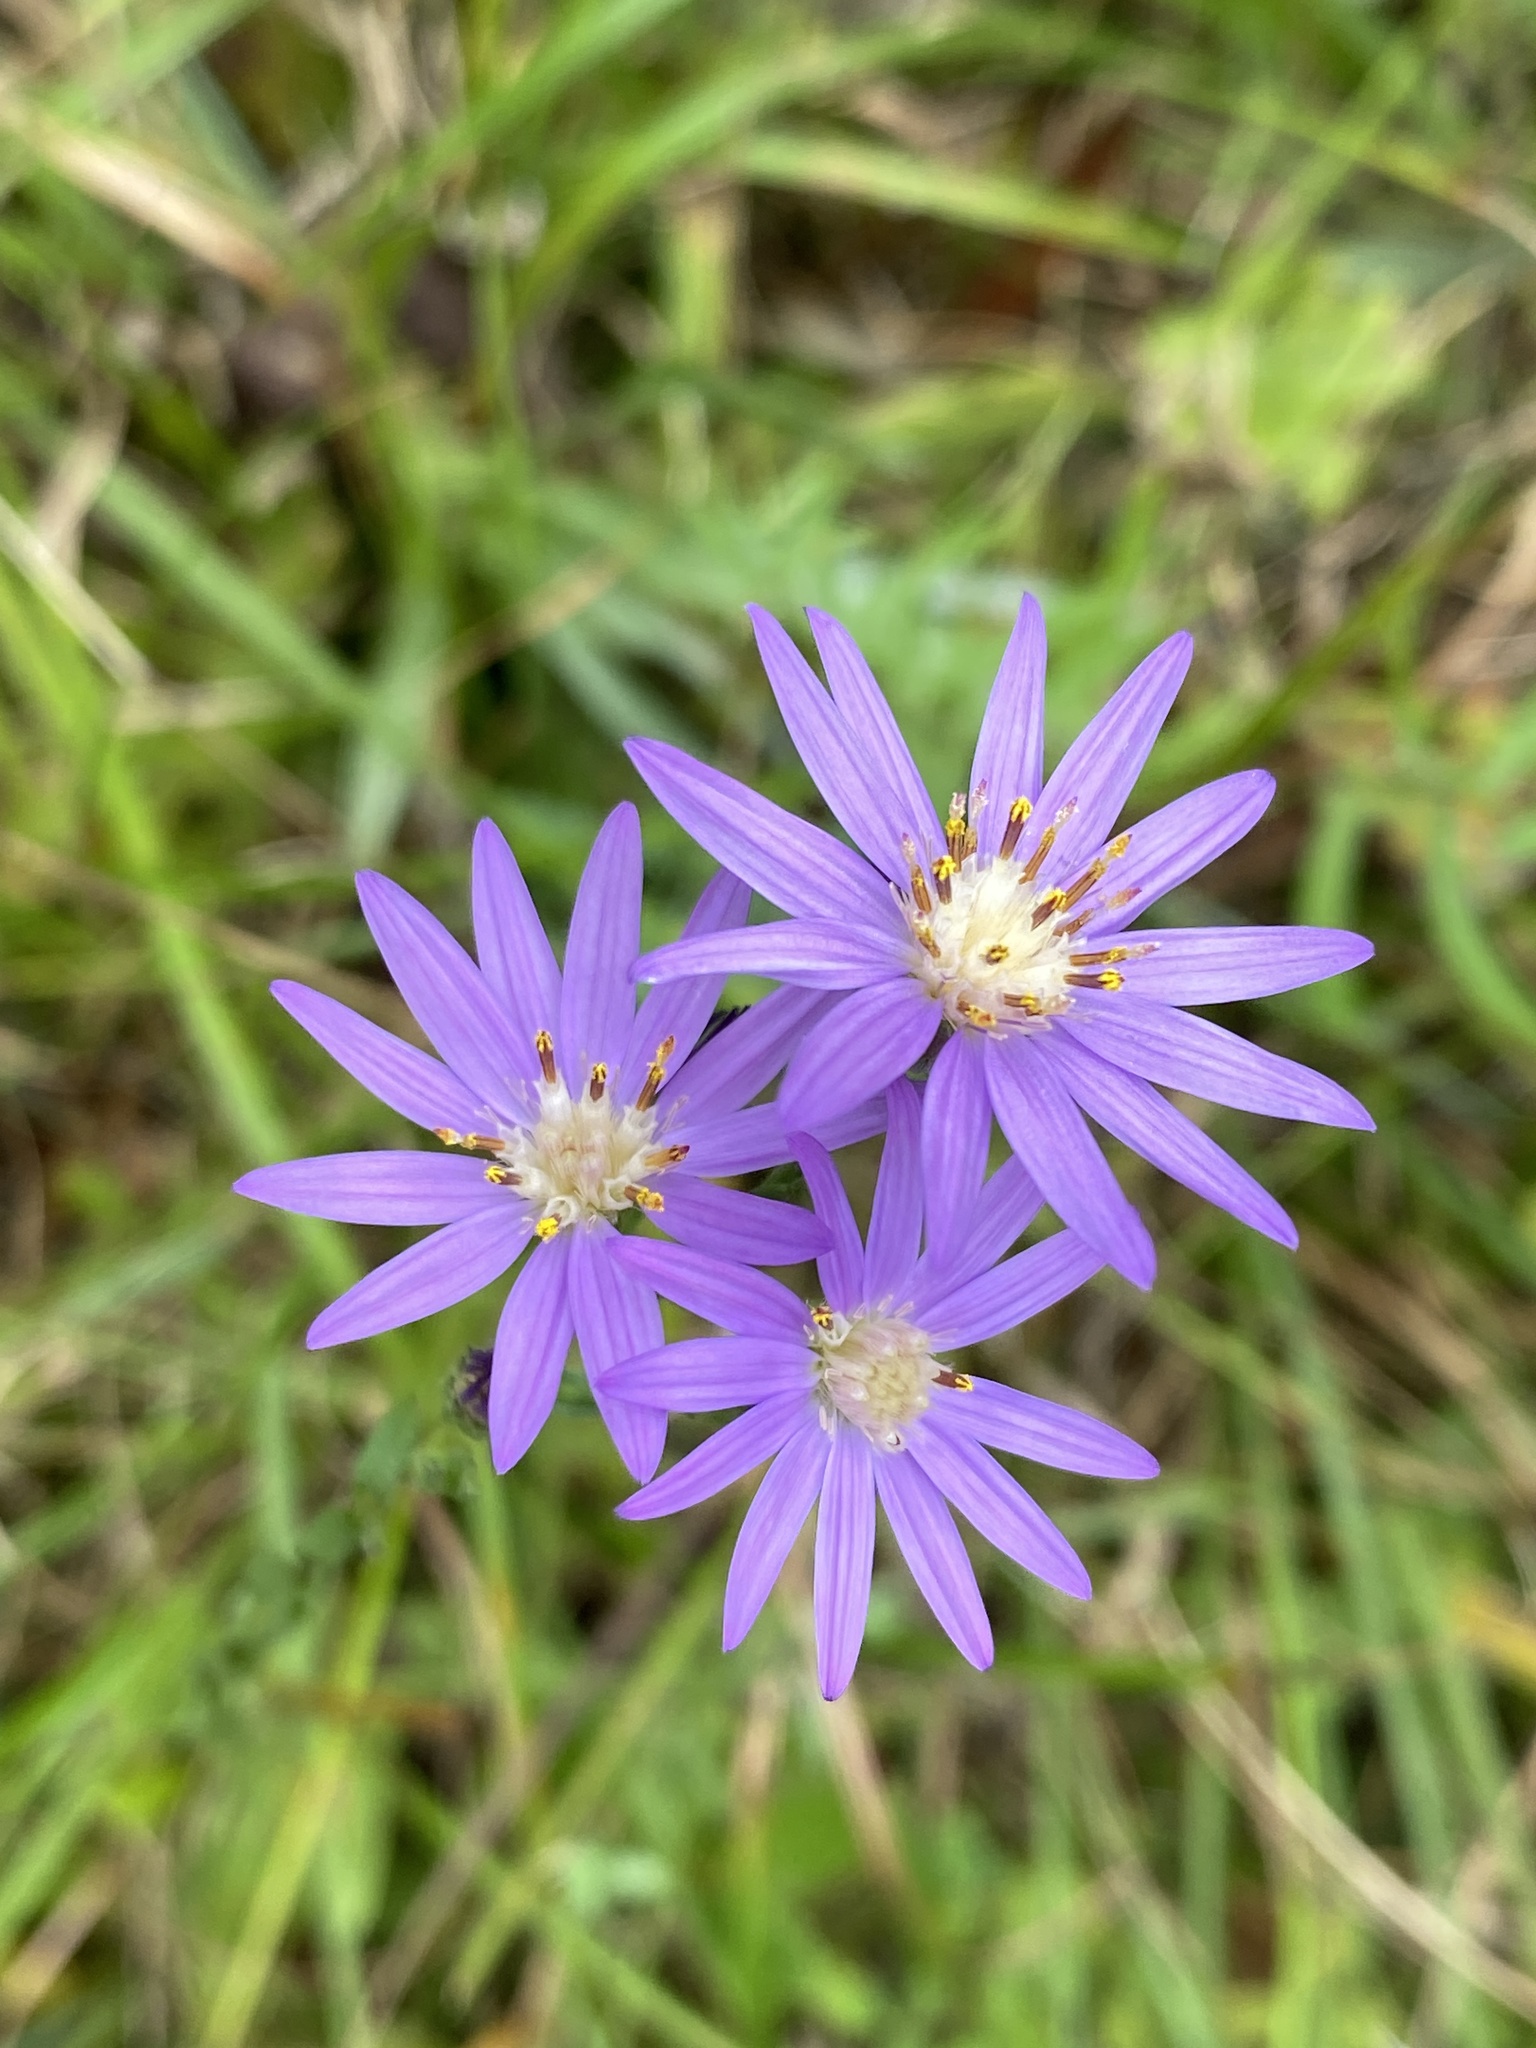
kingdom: Plantae
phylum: Tracheophyta
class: Magnoliopsida
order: Asterales
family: Asteraceae
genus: Symphyotrichum
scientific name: Symphyotrichum concolor
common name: Eastern silver aster
